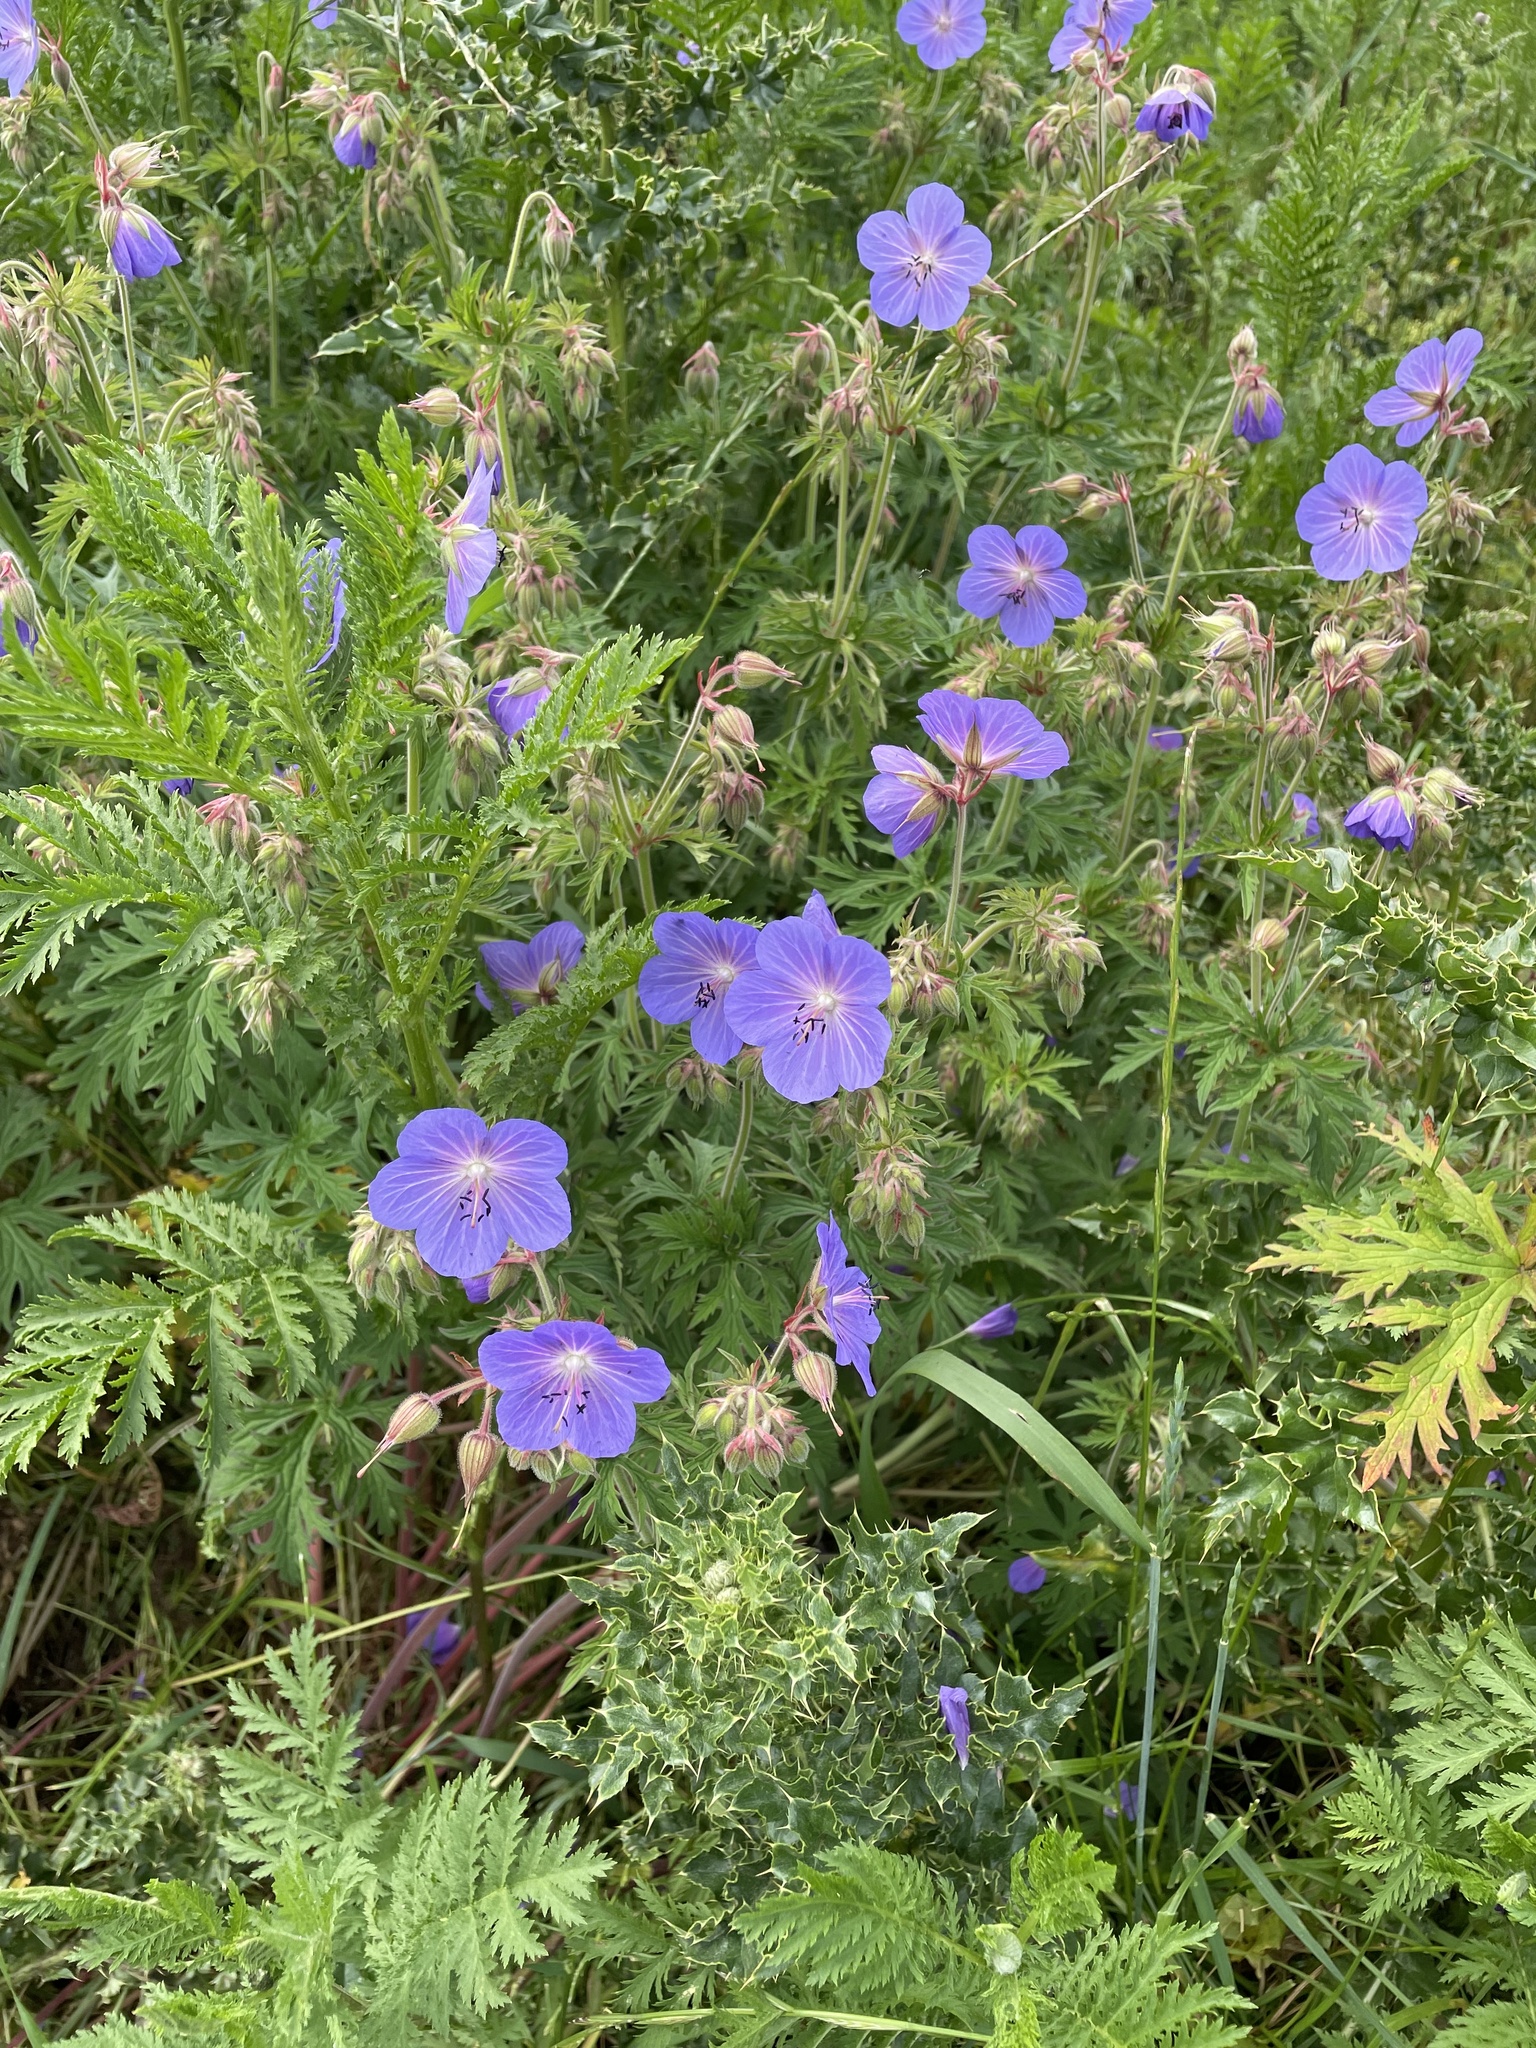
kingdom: Plantae
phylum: Tracheophyta
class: Magnoliopsida
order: Geraniales
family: Geraniaceae
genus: Geranium
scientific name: Geranium pratense
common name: Meadow crane's-bill
